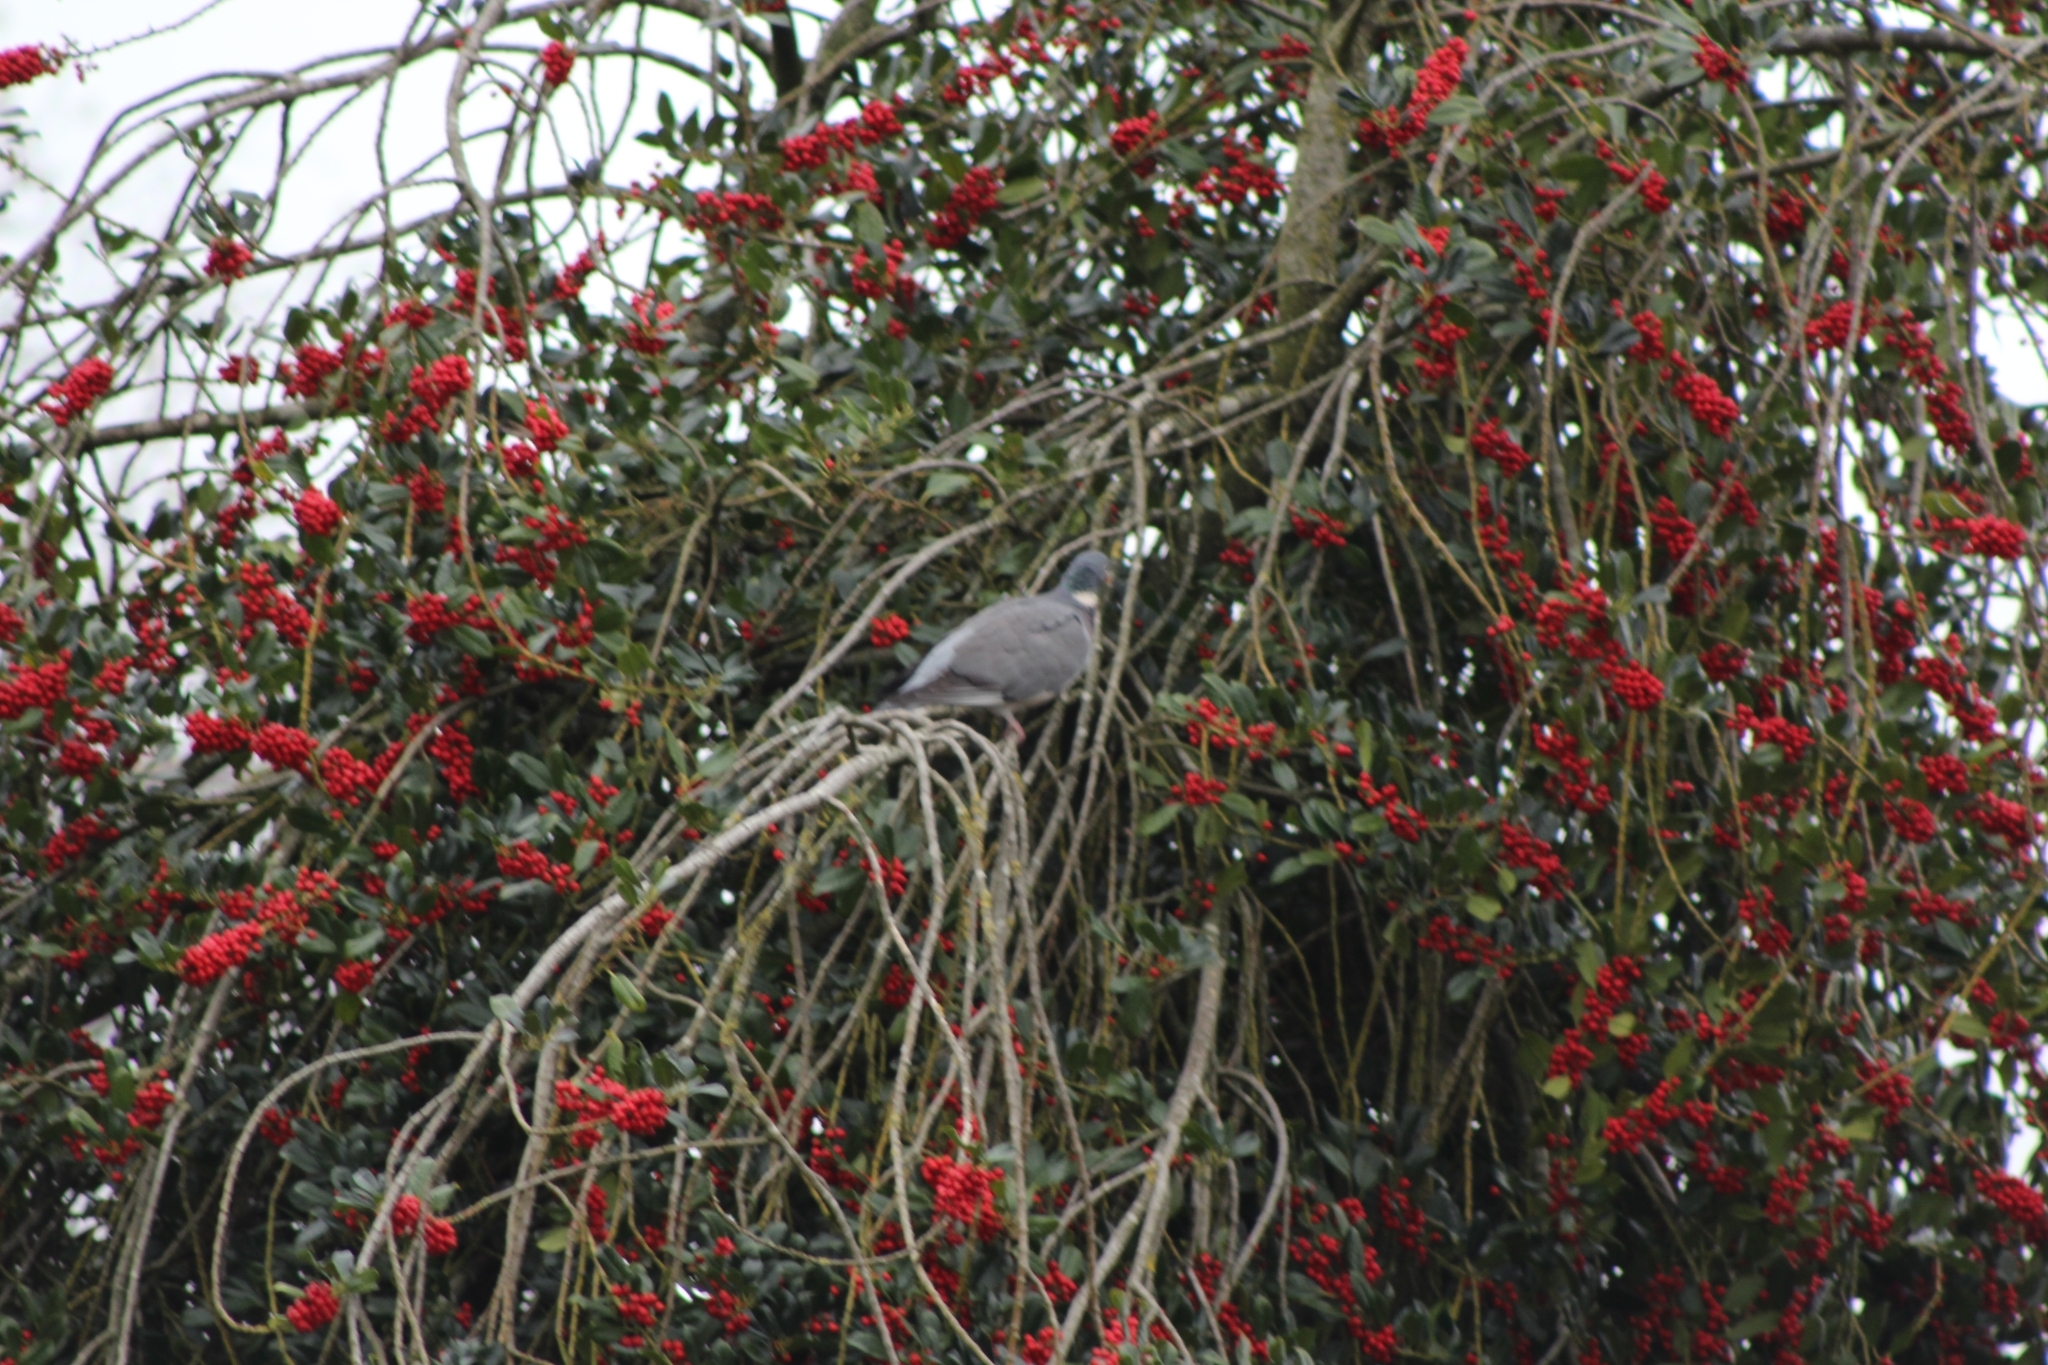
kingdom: Animalia
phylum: Chordata
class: Aves
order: Columbiformes
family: Columbidae
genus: Columba
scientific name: Columba palumbus
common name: Common wood pigeon
